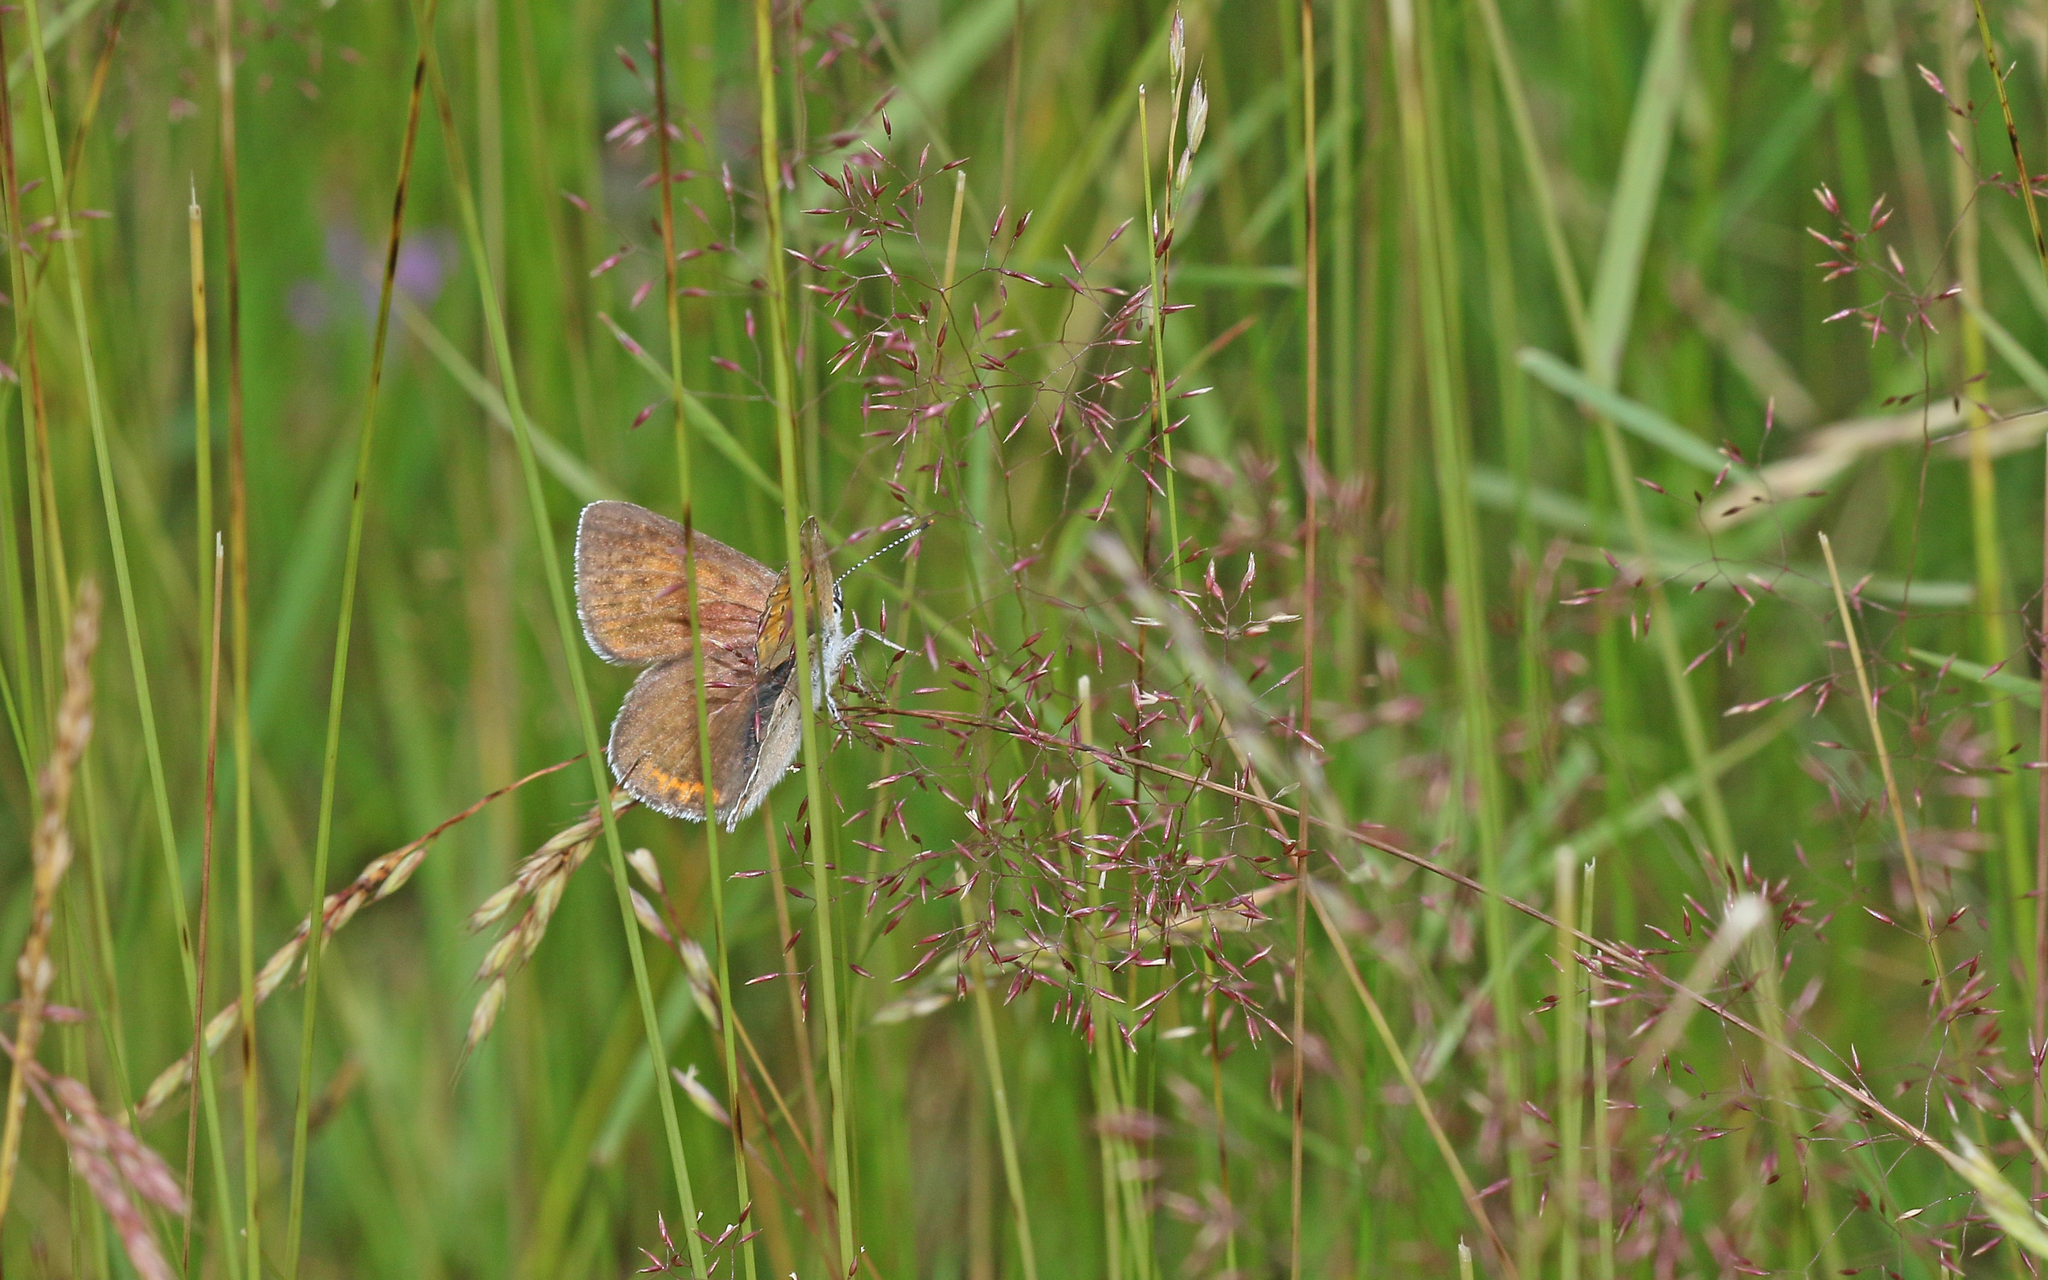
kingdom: Animalia
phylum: Arthropoda
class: Insecta
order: Lepidoptera
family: Lycaenidae
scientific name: Lycaenidae
